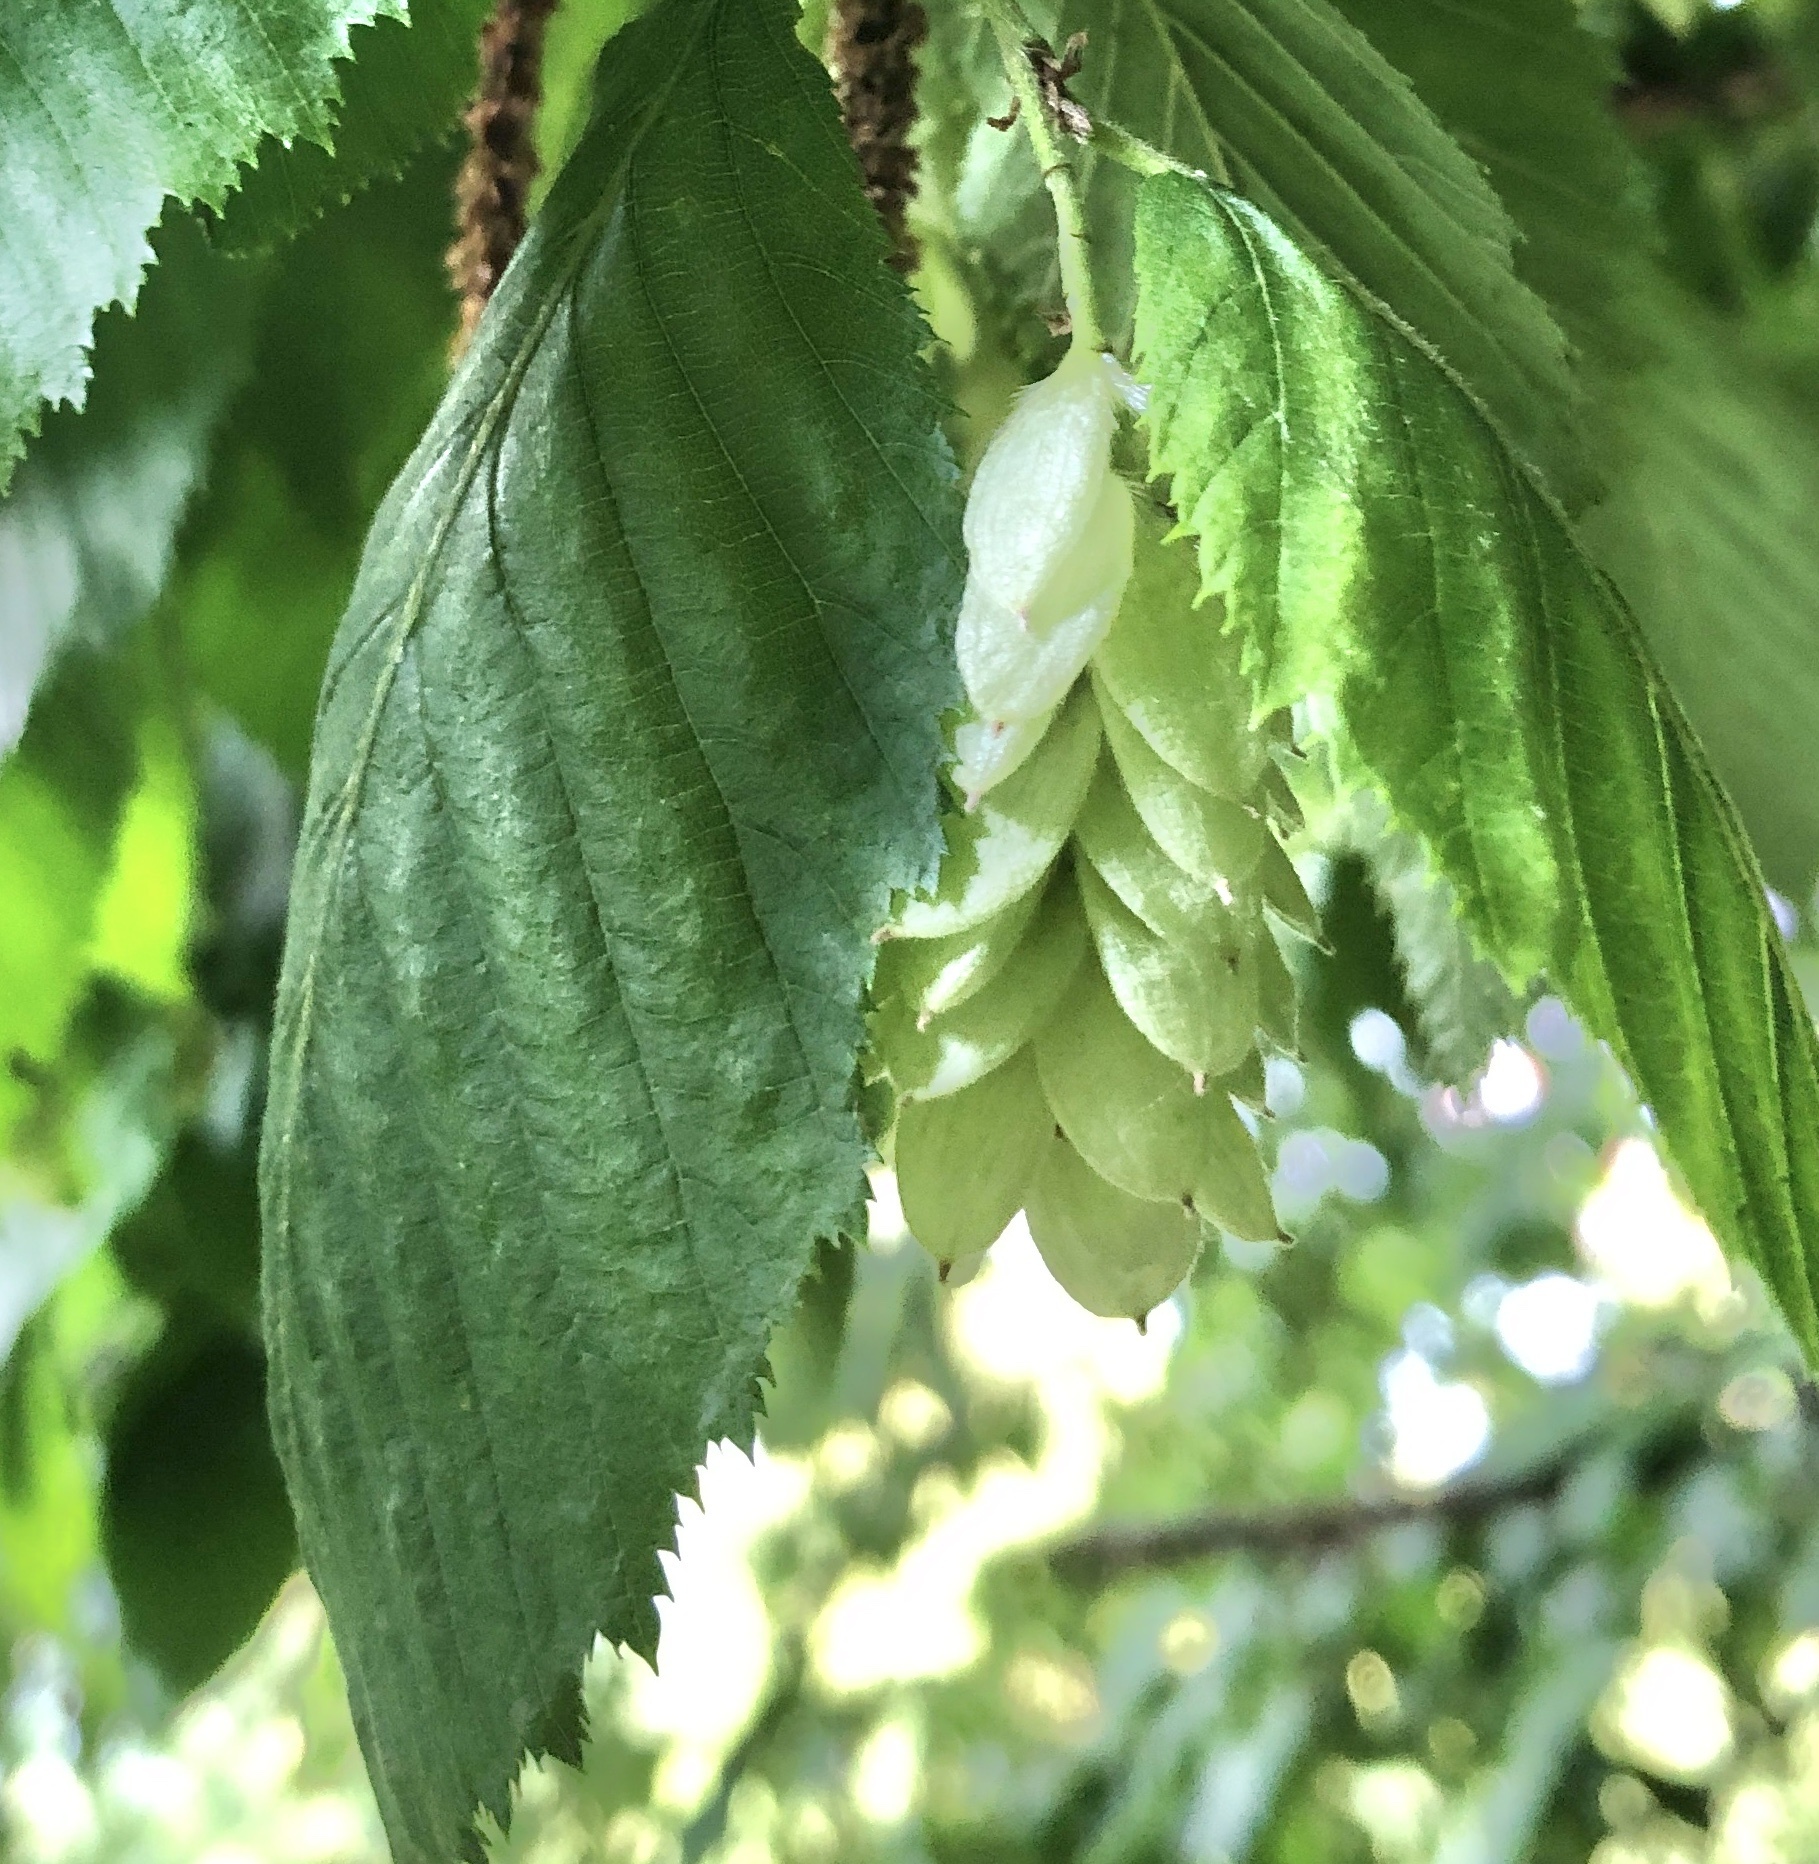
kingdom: Plantae
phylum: Tracheophyta
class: Magnoliopsida
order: Fagales
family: Betulaceae
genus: Ostrya
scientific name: Ostrya carpinifolia
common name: European hop-hornbeam
